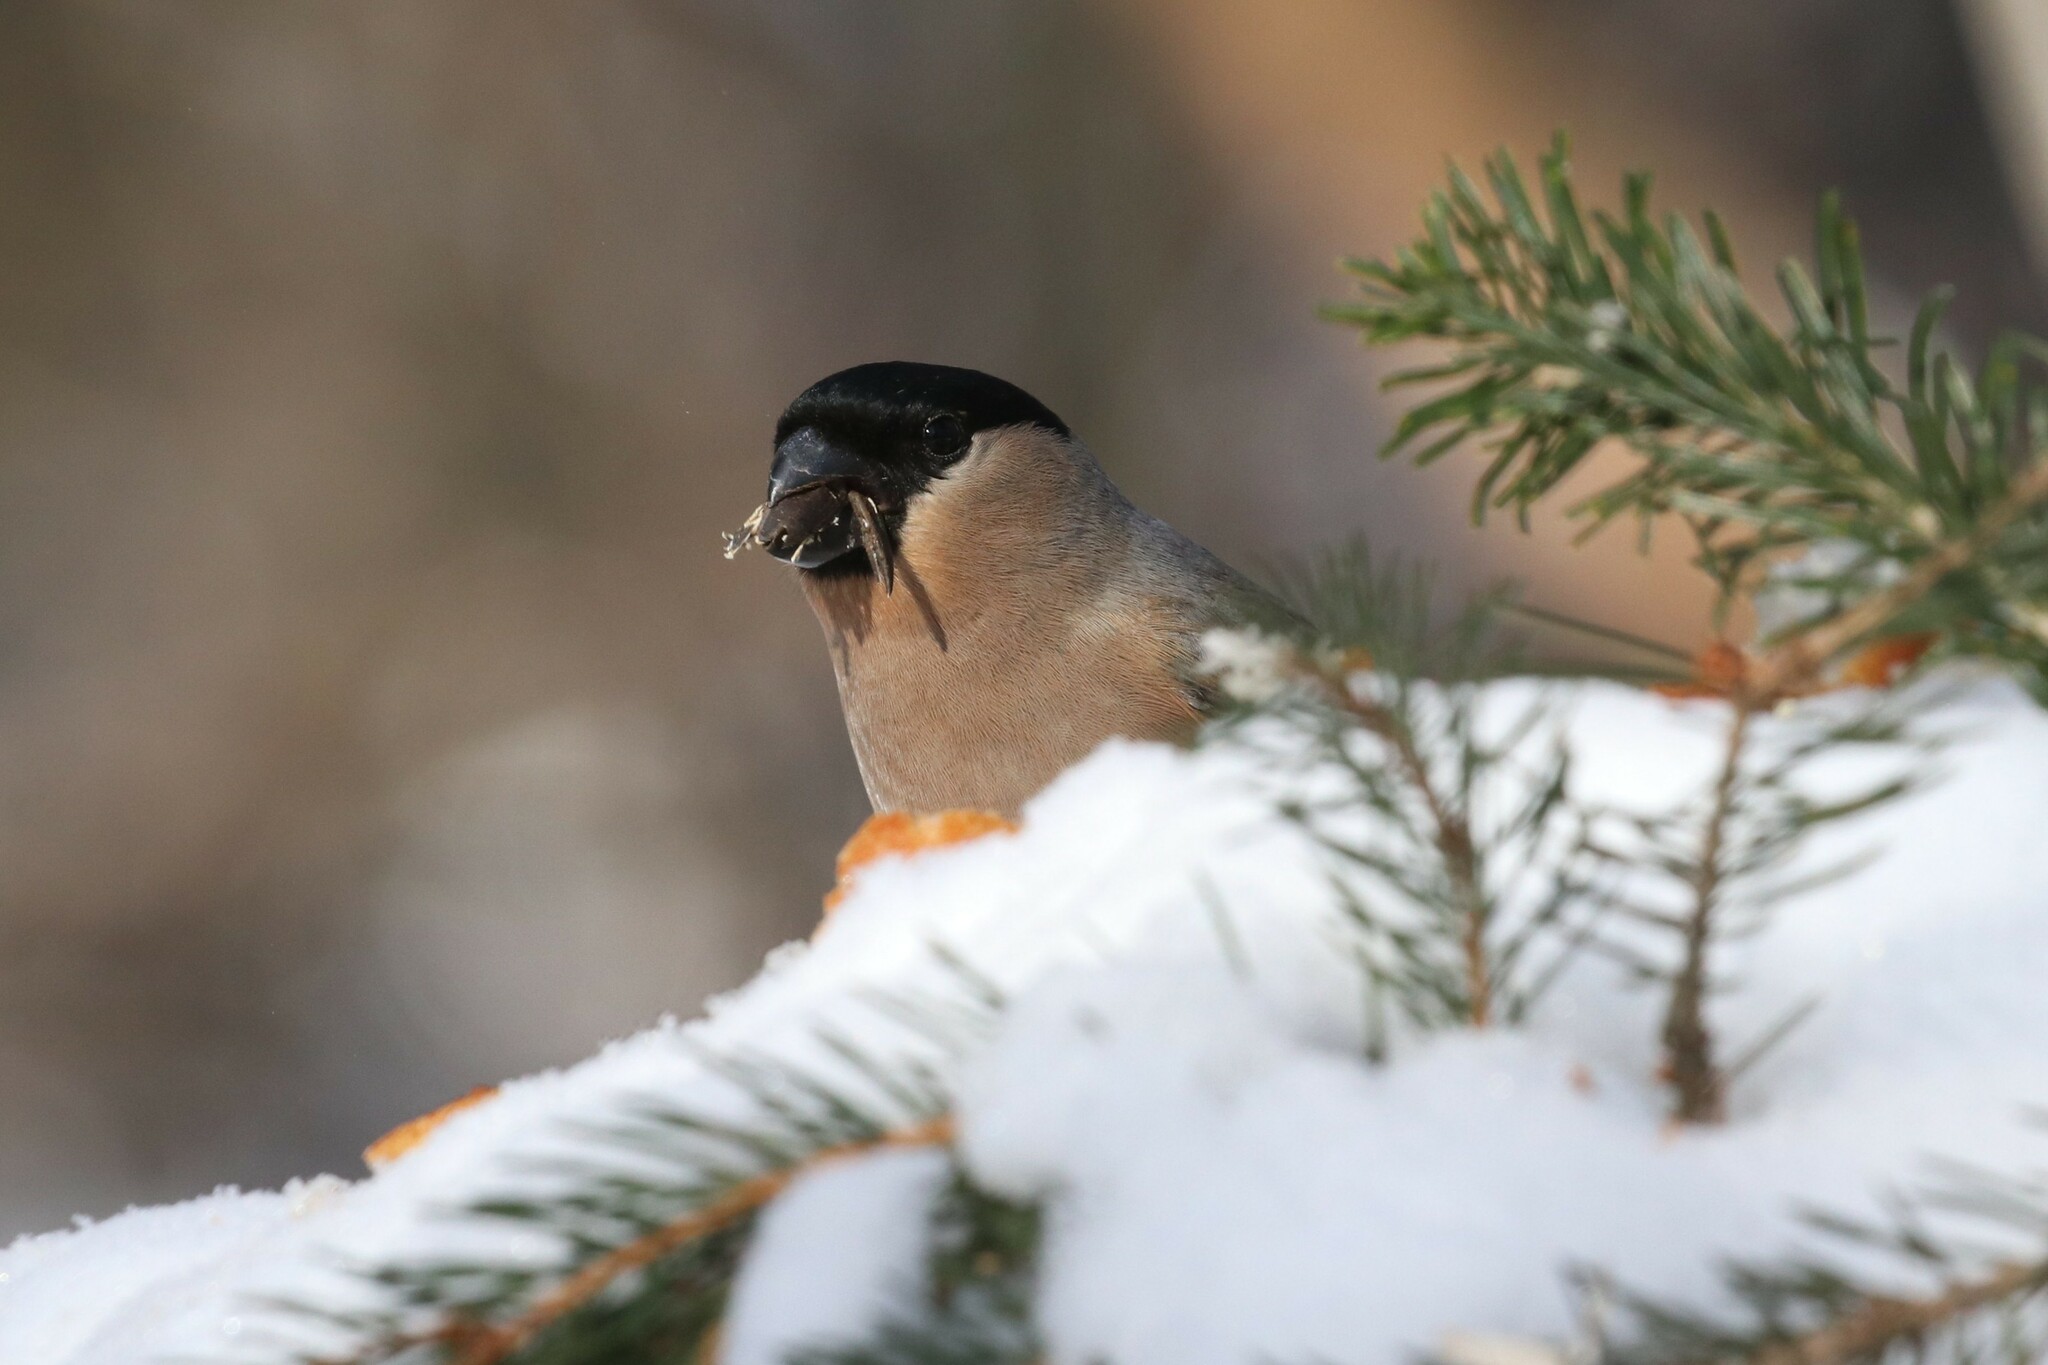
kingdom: Animalia
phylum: Chordata
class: Aves
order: Passeriformes
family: Fringillidae
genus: Pyrrhula
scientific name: Pyrrhula pyrrhula
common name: Eurasian bullfinch
